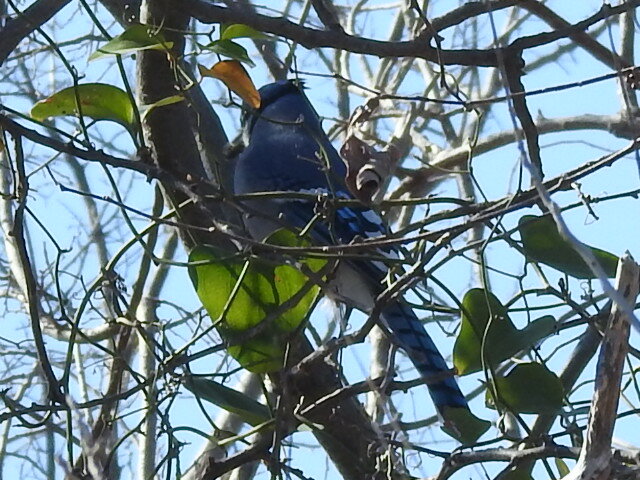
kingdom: Animalia
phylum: Chordata
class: Aves
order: Passeriformes
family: Corvidae
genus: Cyanocitta
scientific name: Cyanocitta cristata
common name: Blue jay
